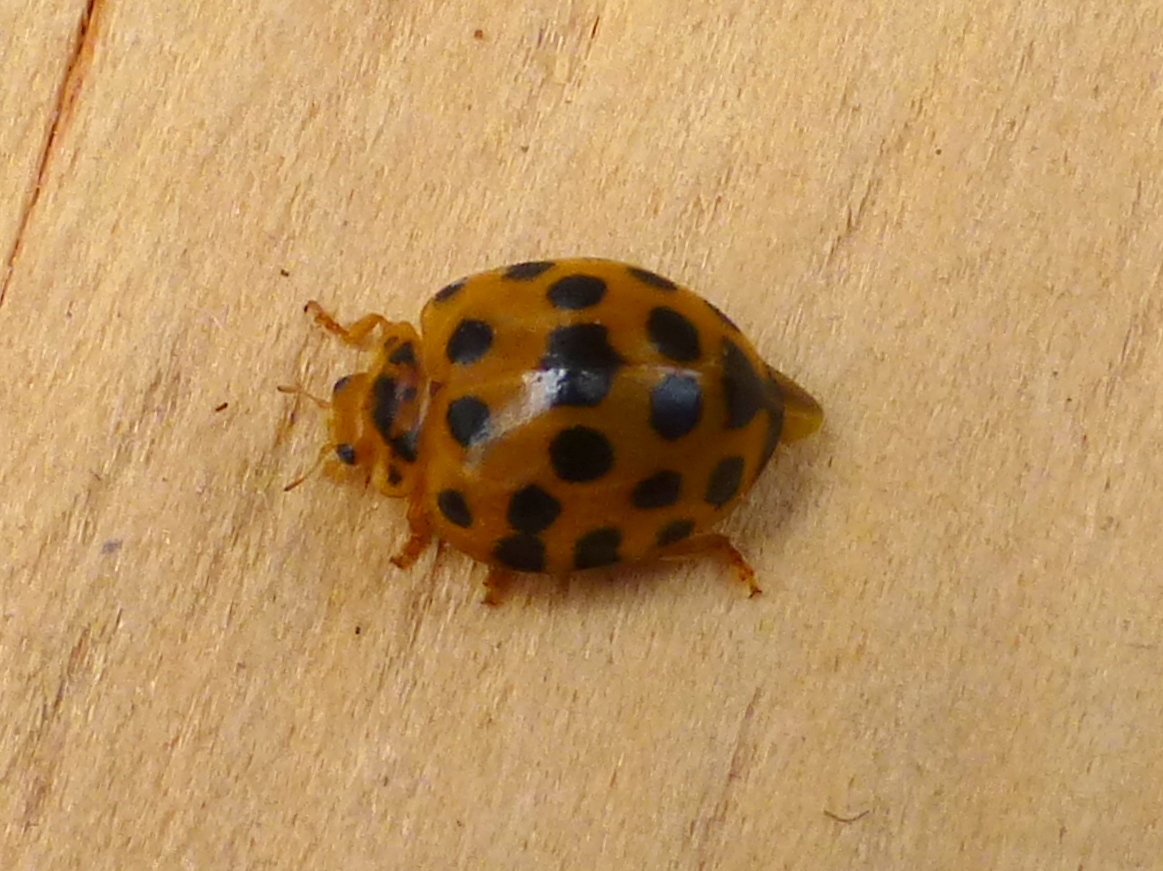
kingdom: Animalia
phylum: Arthropoda
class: Insecta
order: Coleoptera
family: Coccinellidae
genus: Henosepilachna
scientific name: Henosepilachna vigintioctopunctata
